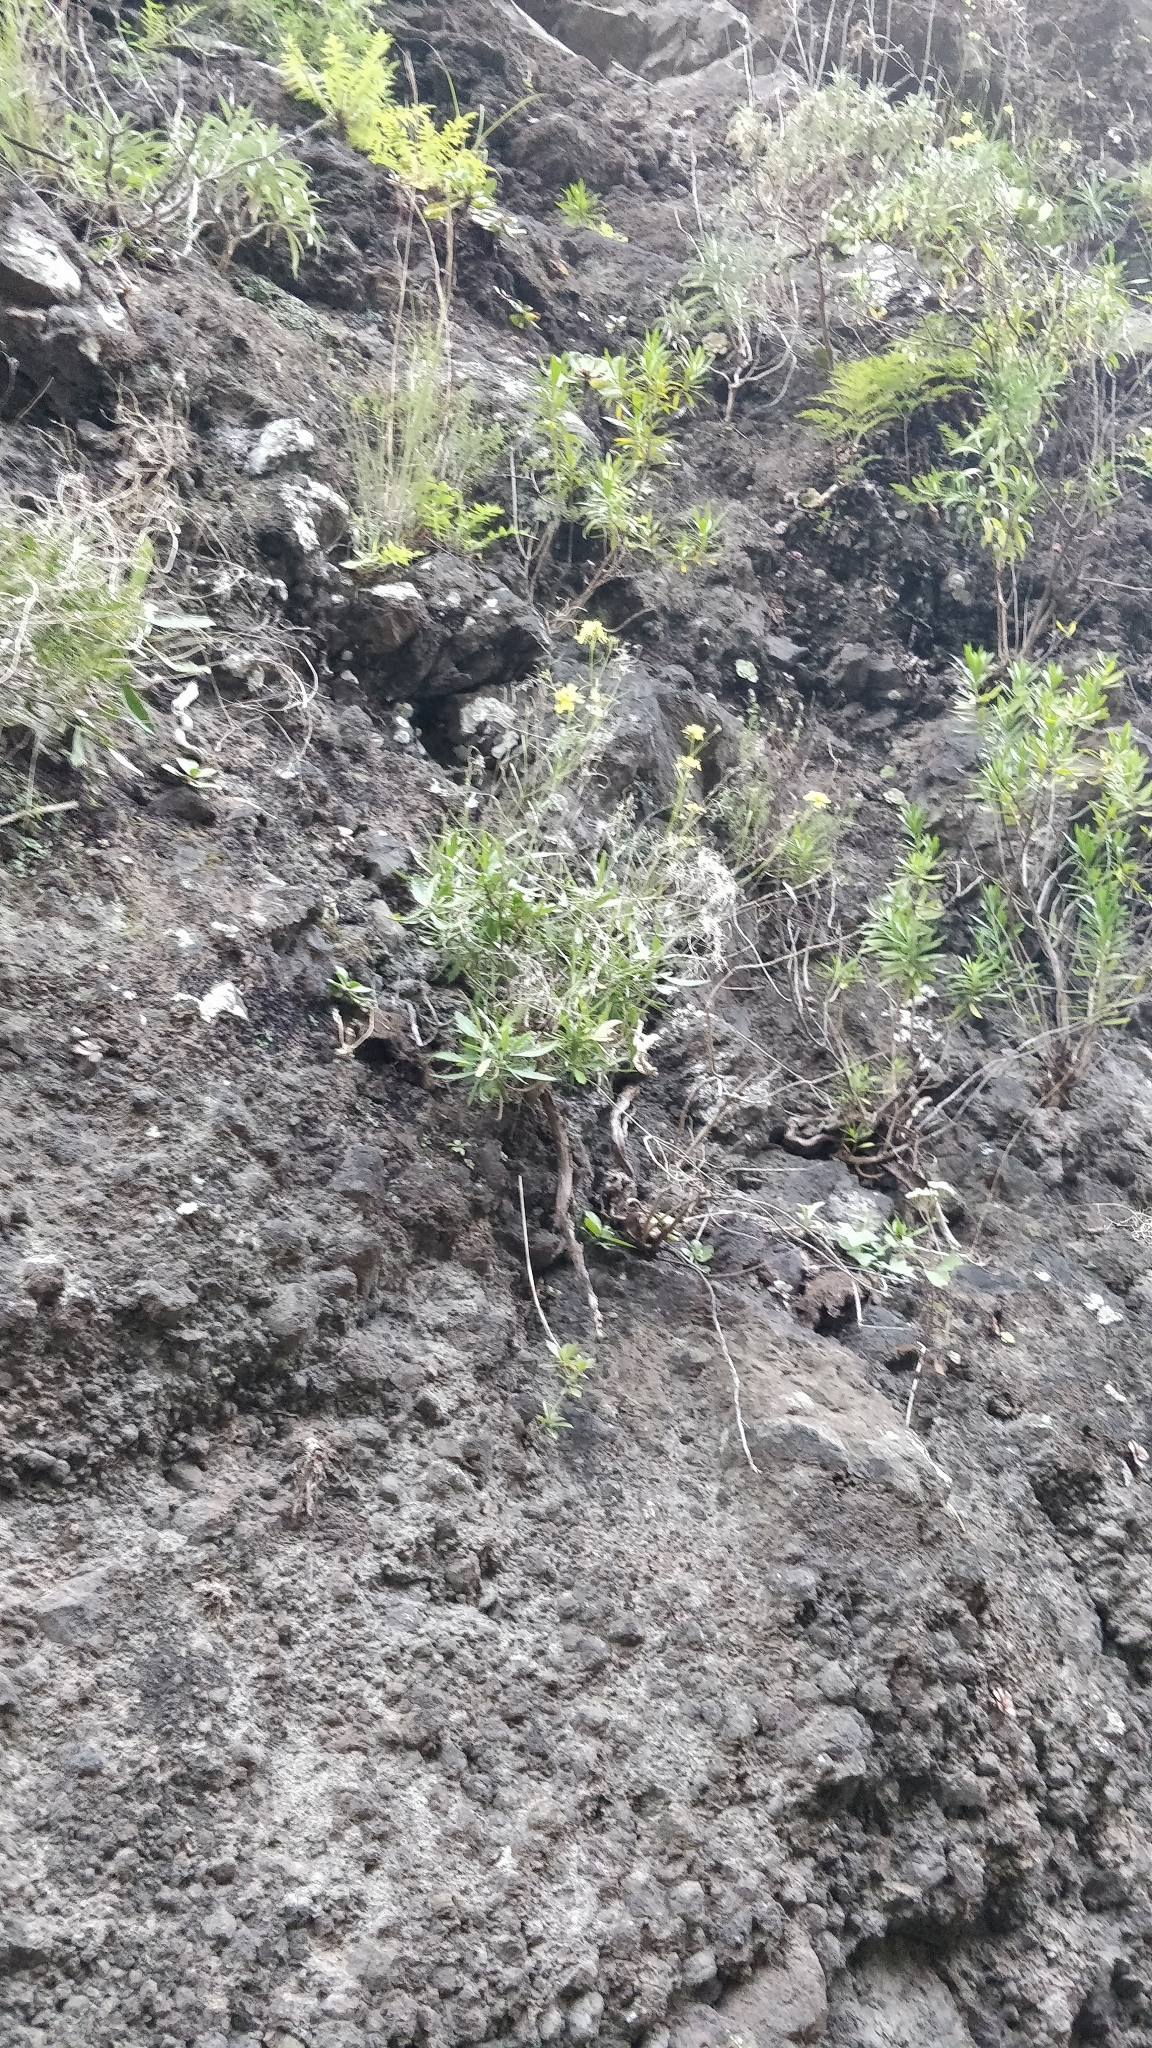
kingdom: Plantae
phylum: Tracheophyta
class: Magnoliopsida
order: Brassicales
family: Brassicaceae
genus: Sinapidendron
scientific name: Sinapidendron angustifolium
